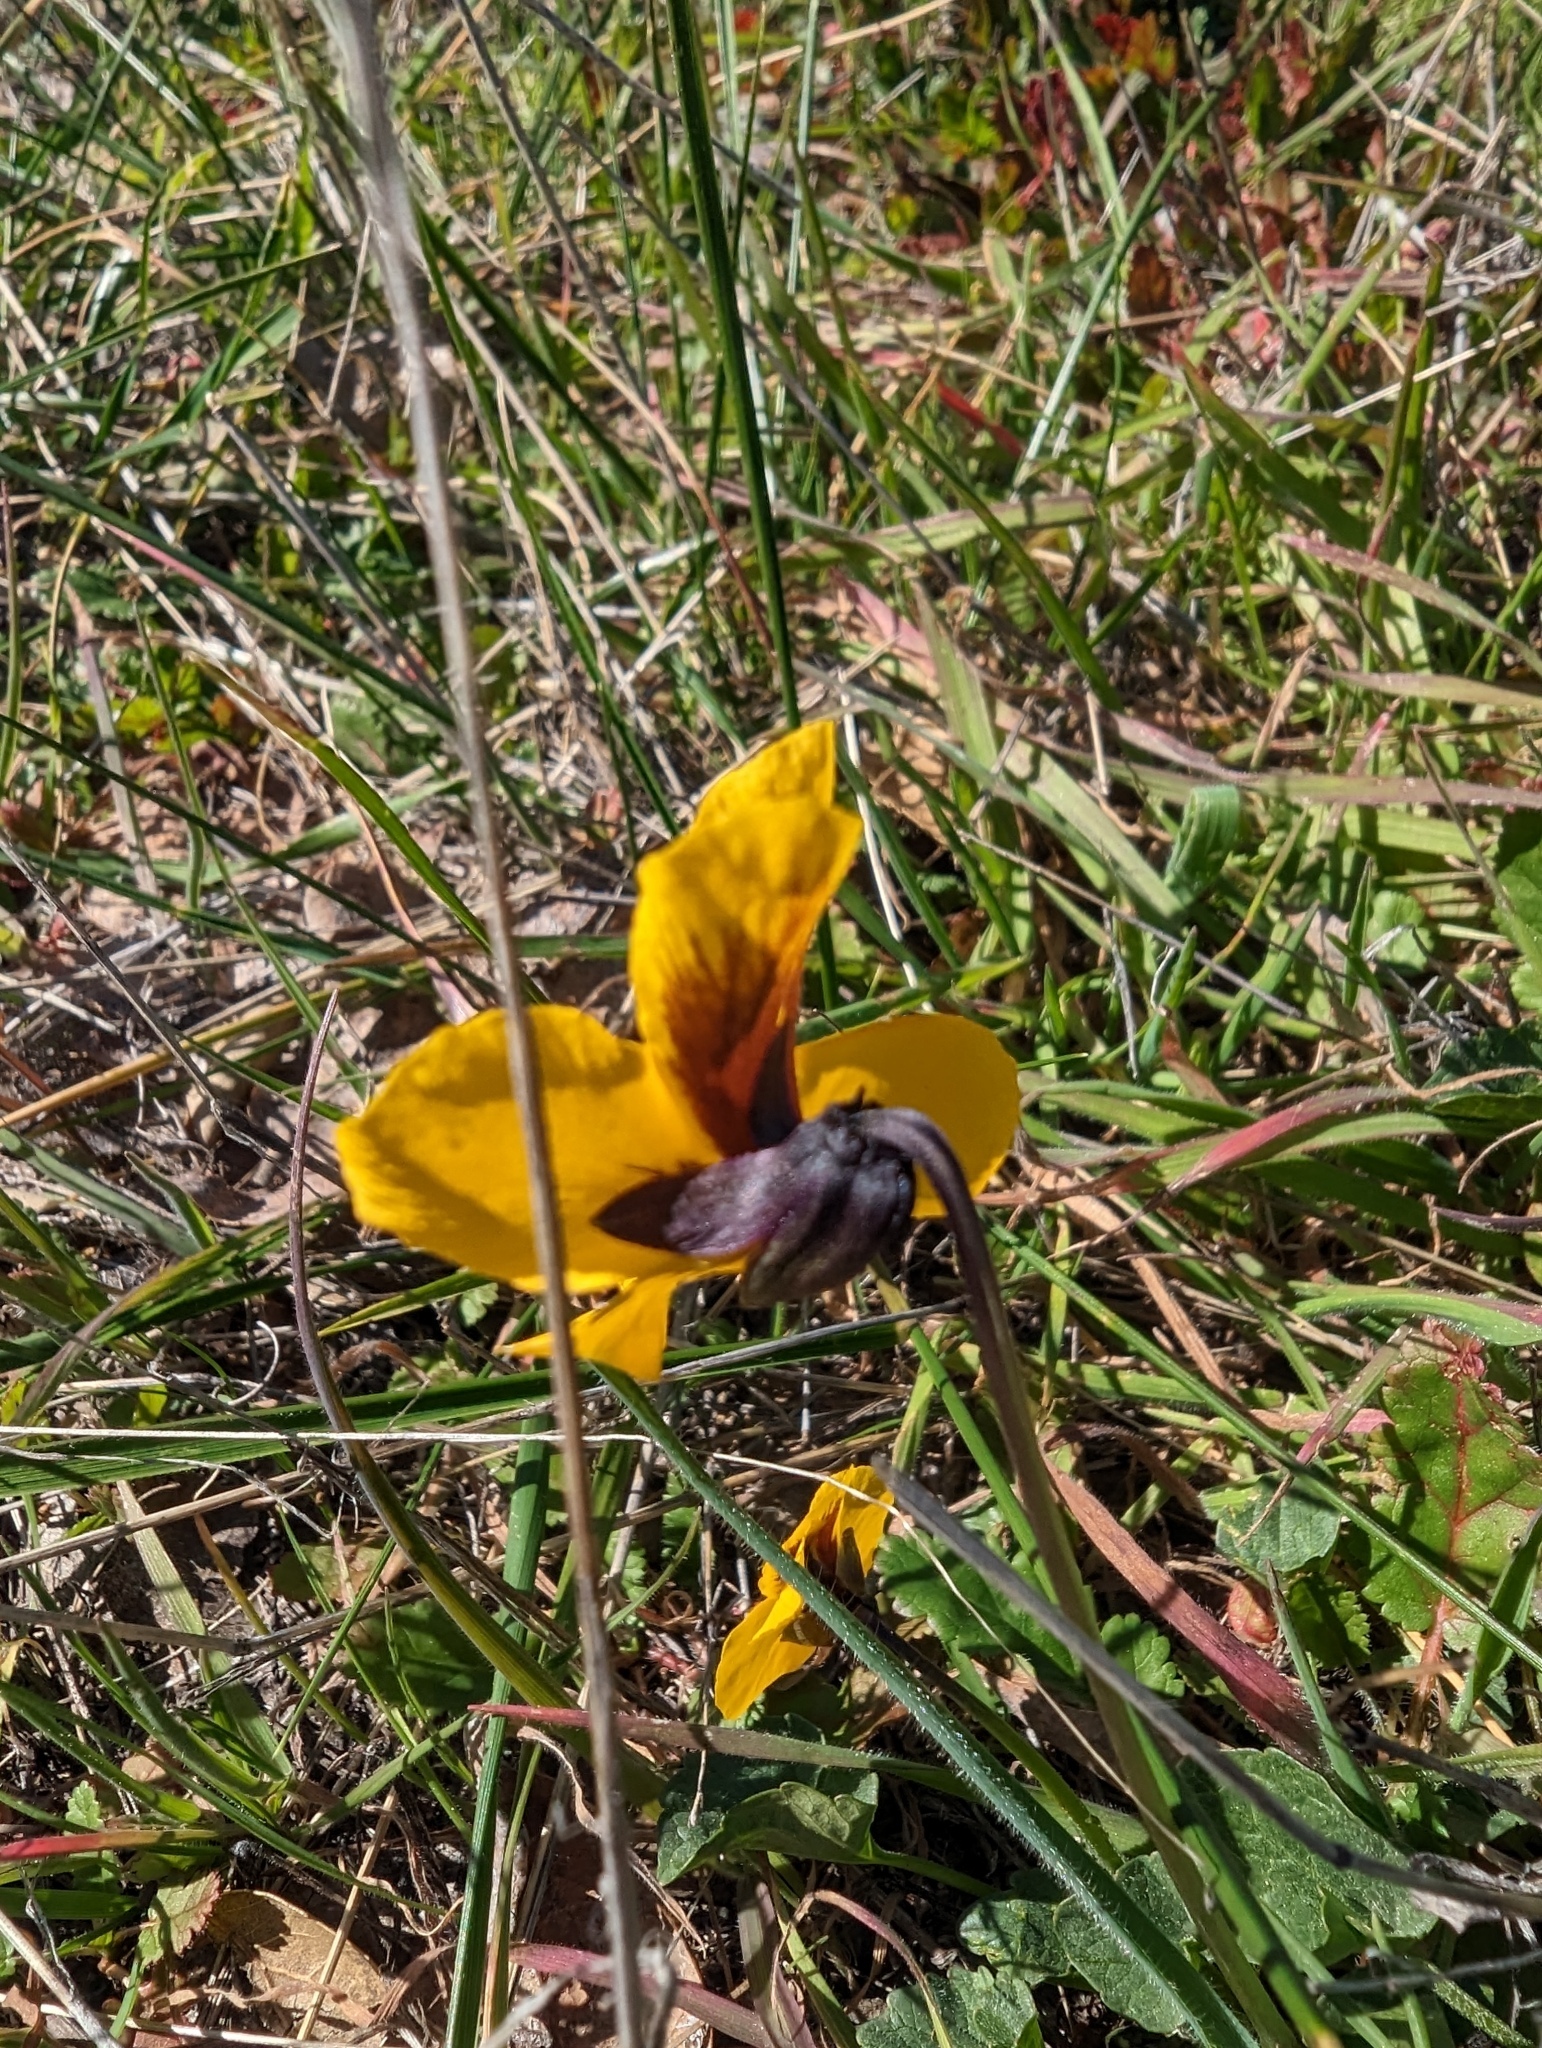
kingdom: Plantae
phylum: Tracheophyta
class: Magnoliopsida
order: Malpighiales
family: Violaceae
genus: Viola
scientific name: Viola pedunculata
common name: California golden violet
